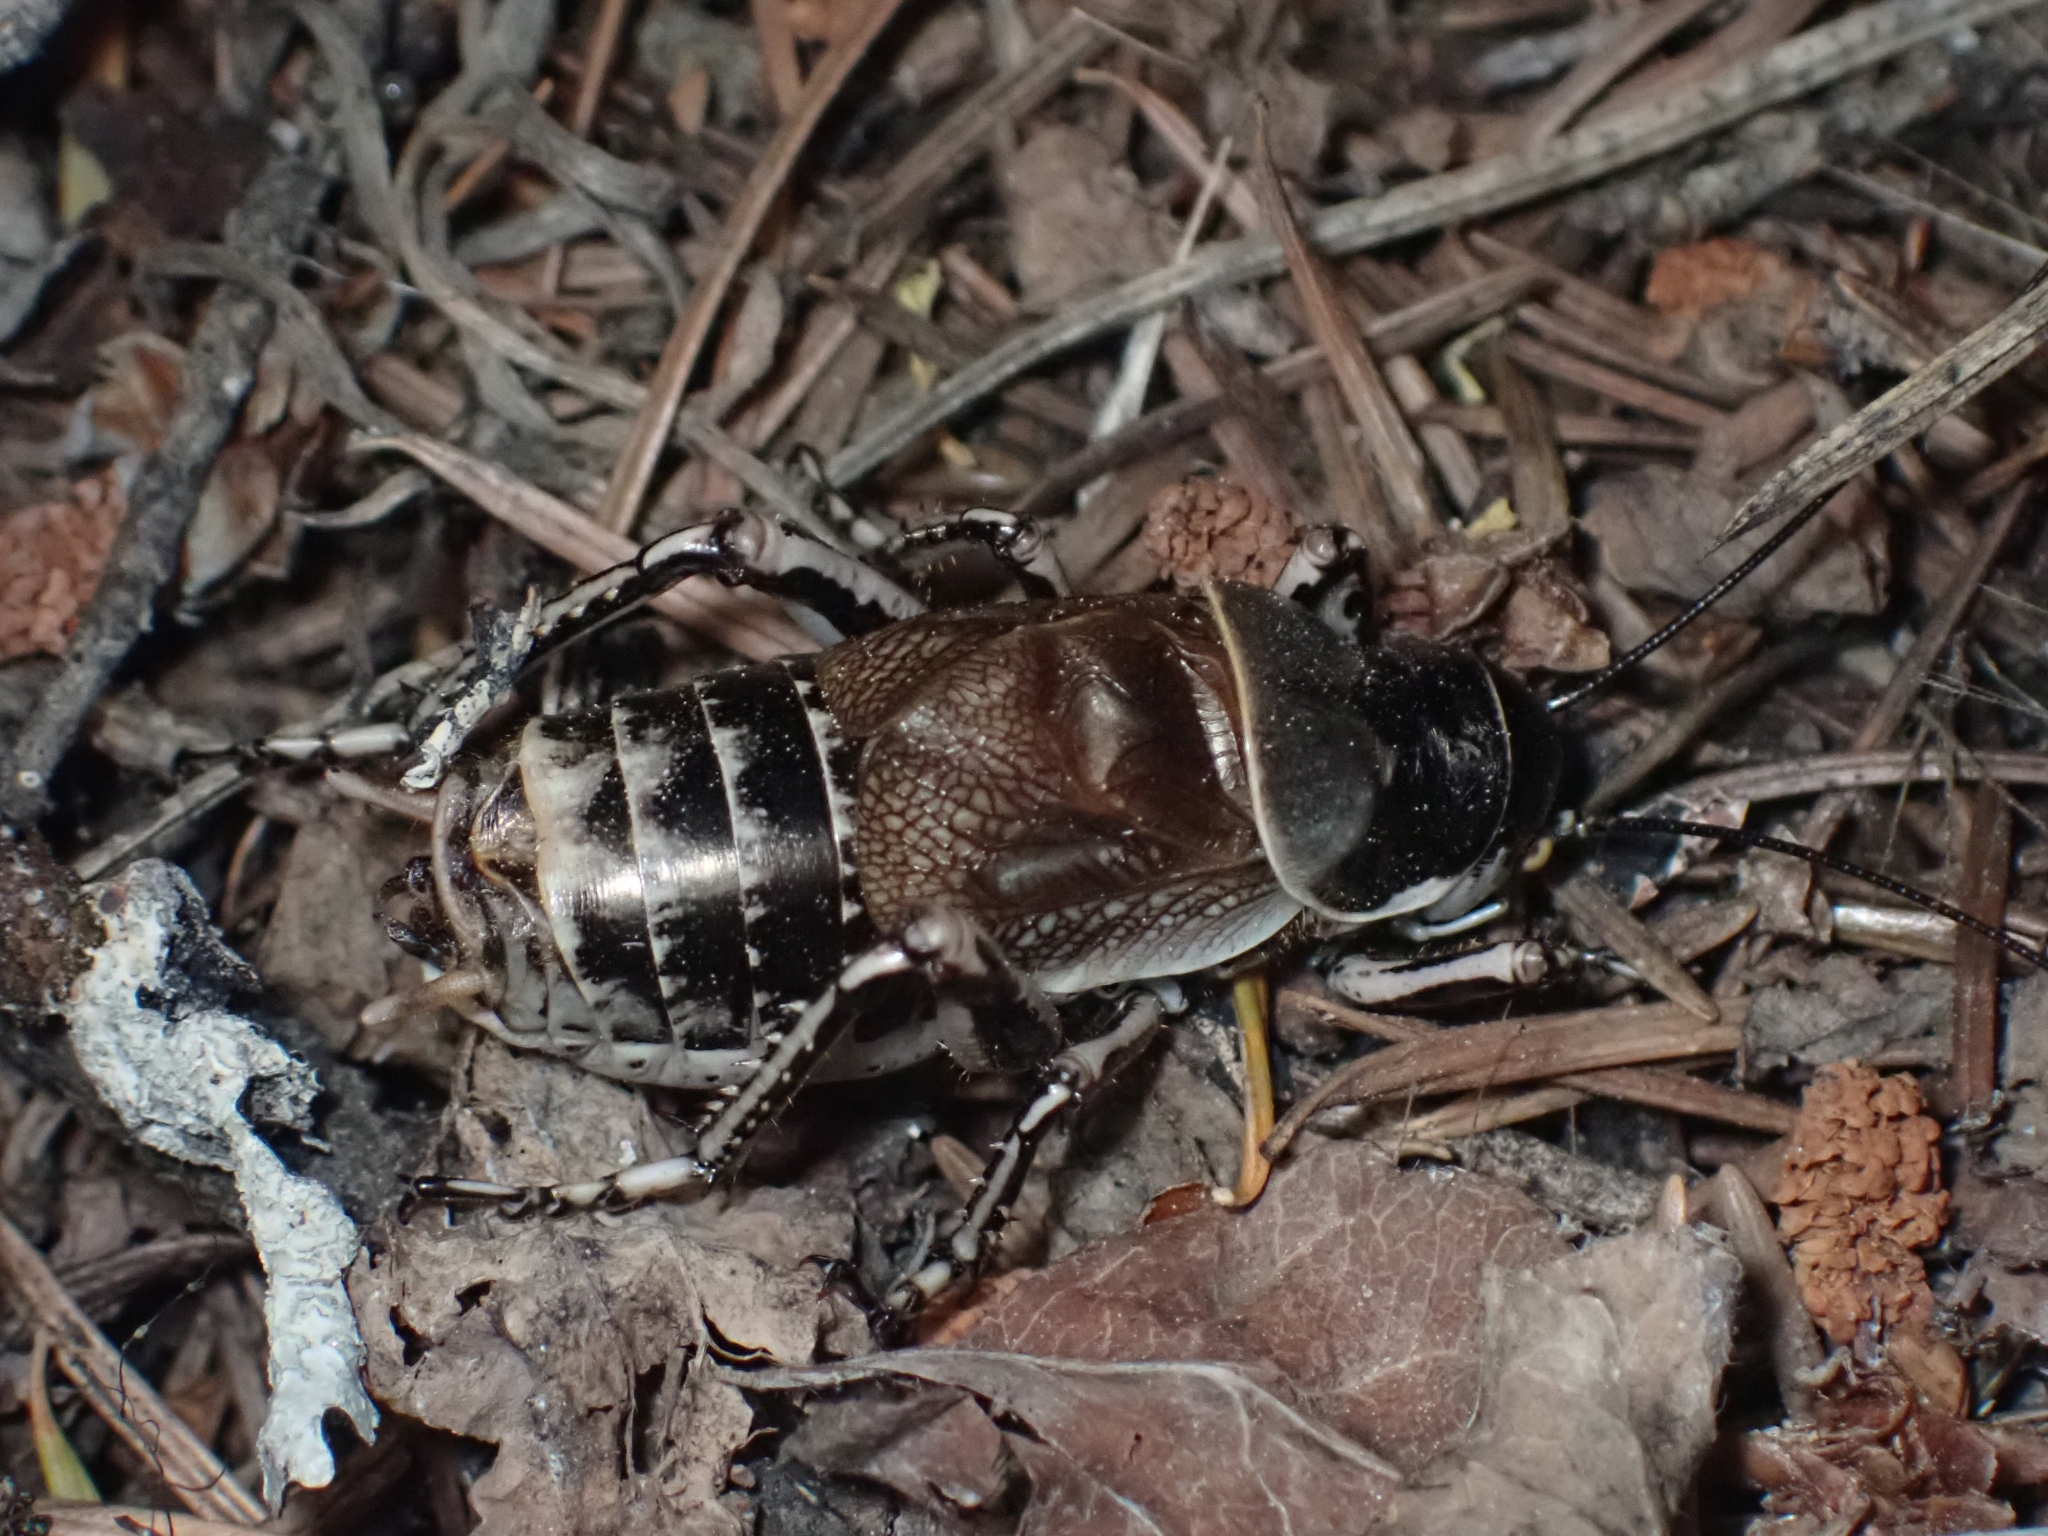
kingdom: Animalia
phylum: Arthropoda
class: Insecta
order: Orthoptera
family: Prophalangopsidae
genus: Cyphoderris
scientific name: Cyphoderris monstrosa
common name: Great grig
